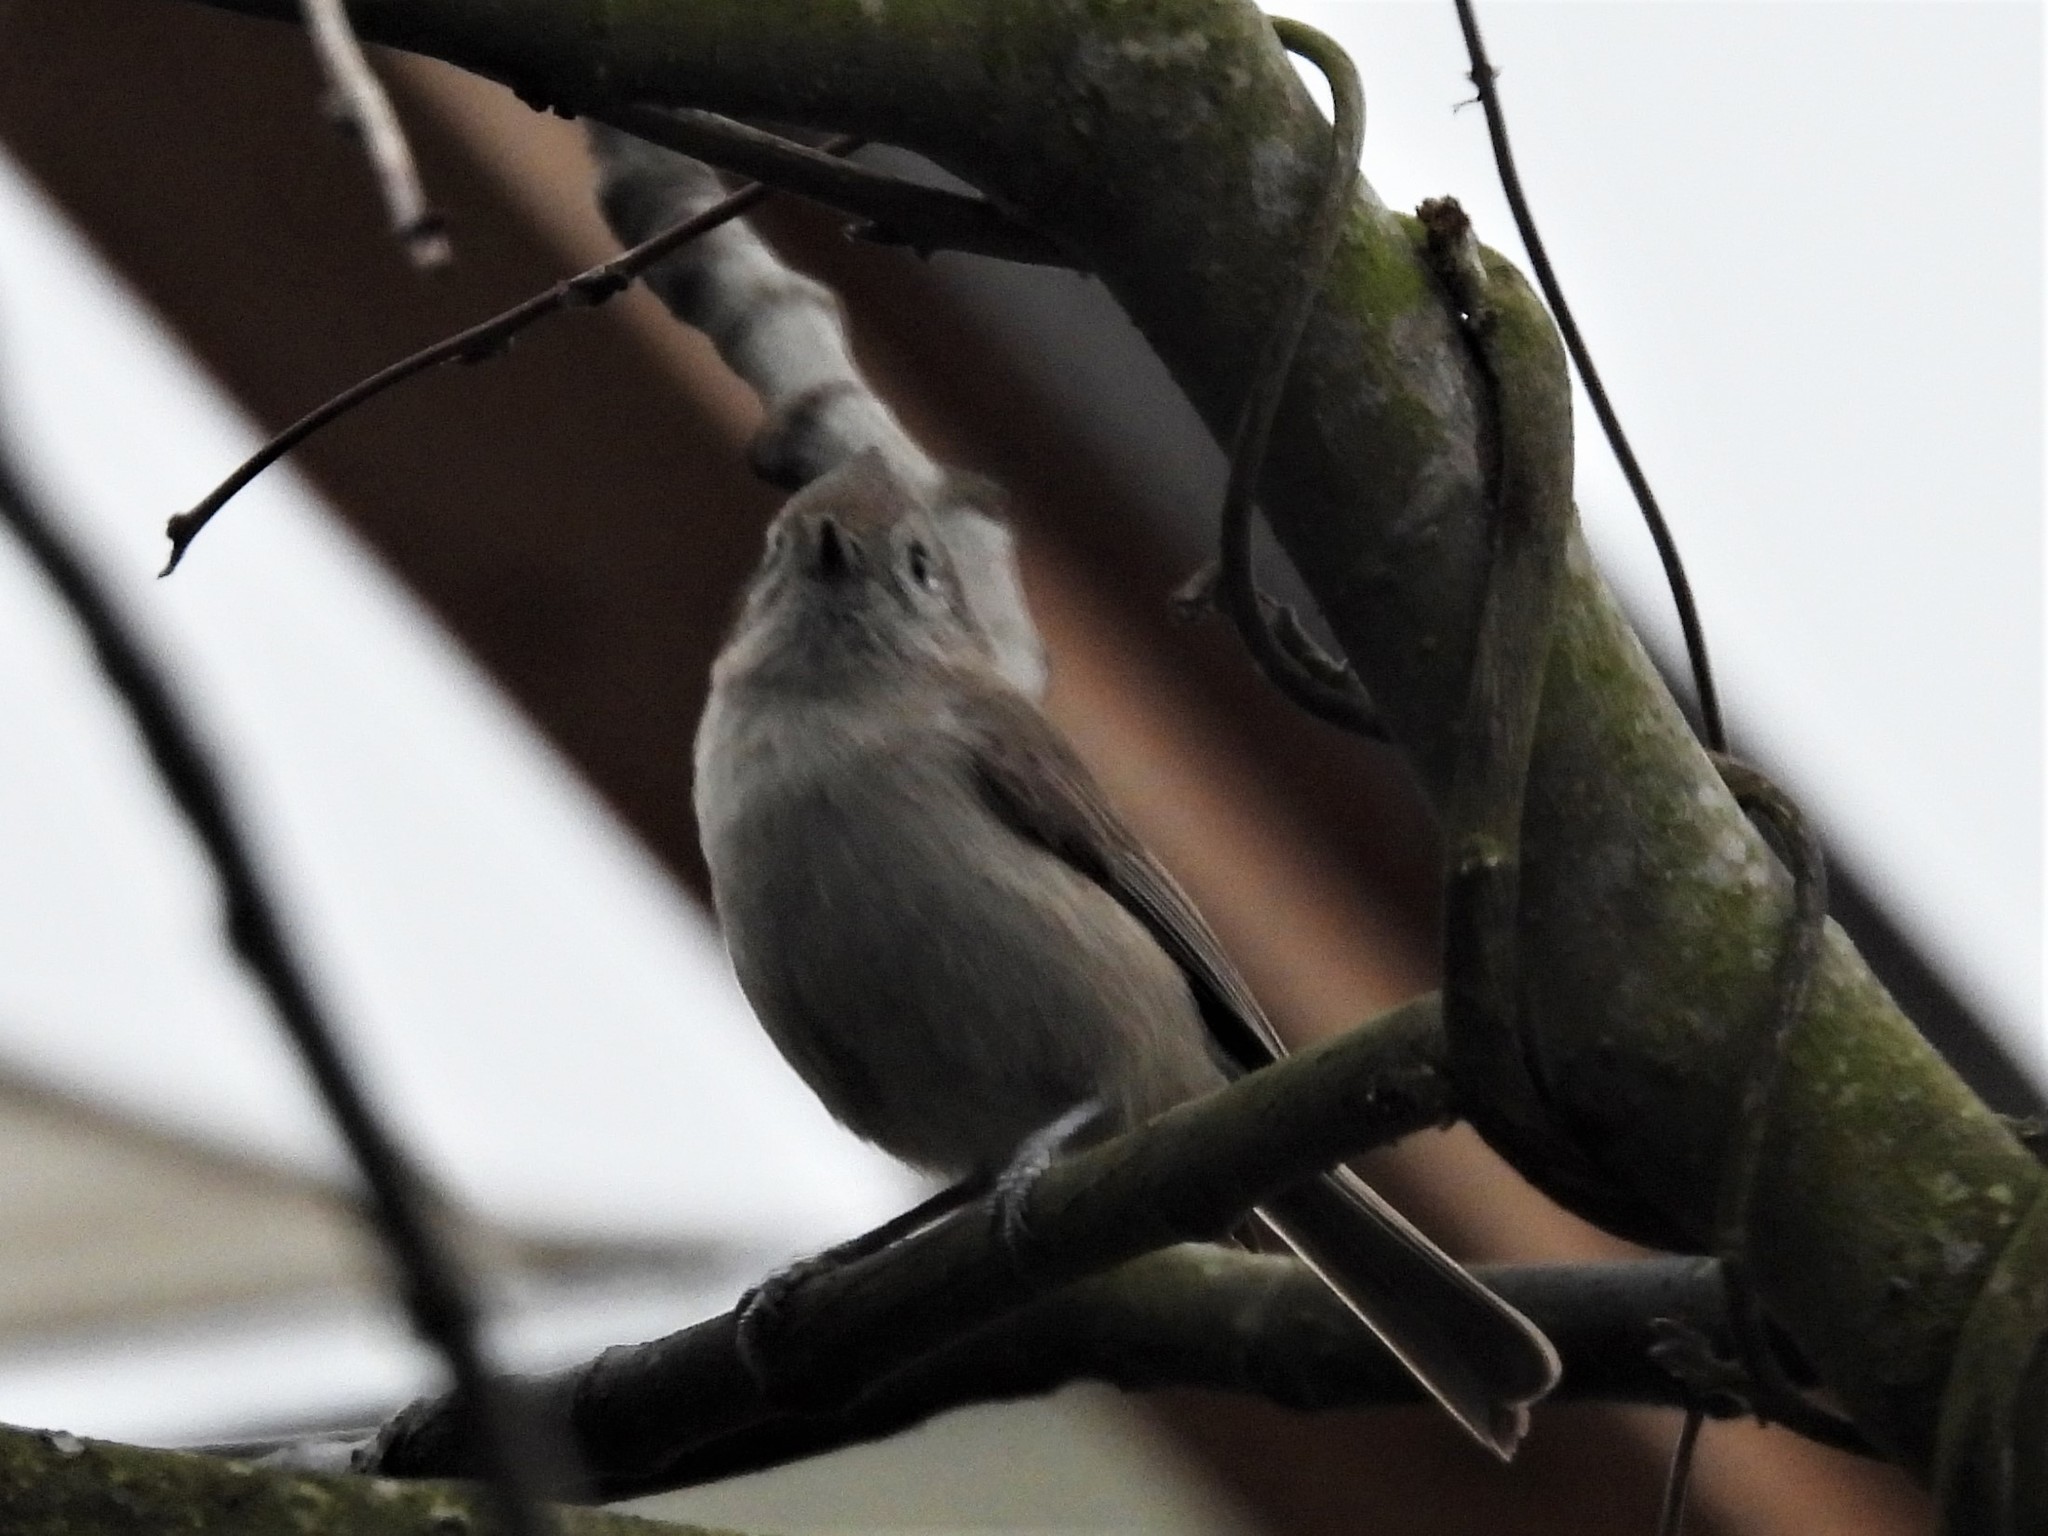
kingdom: Animalia
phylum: Chordata
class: Aves
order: Passeriformes
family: Paridae
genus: Baeolophus
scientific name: Baeolophus inornatus
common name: Oak titmouse
